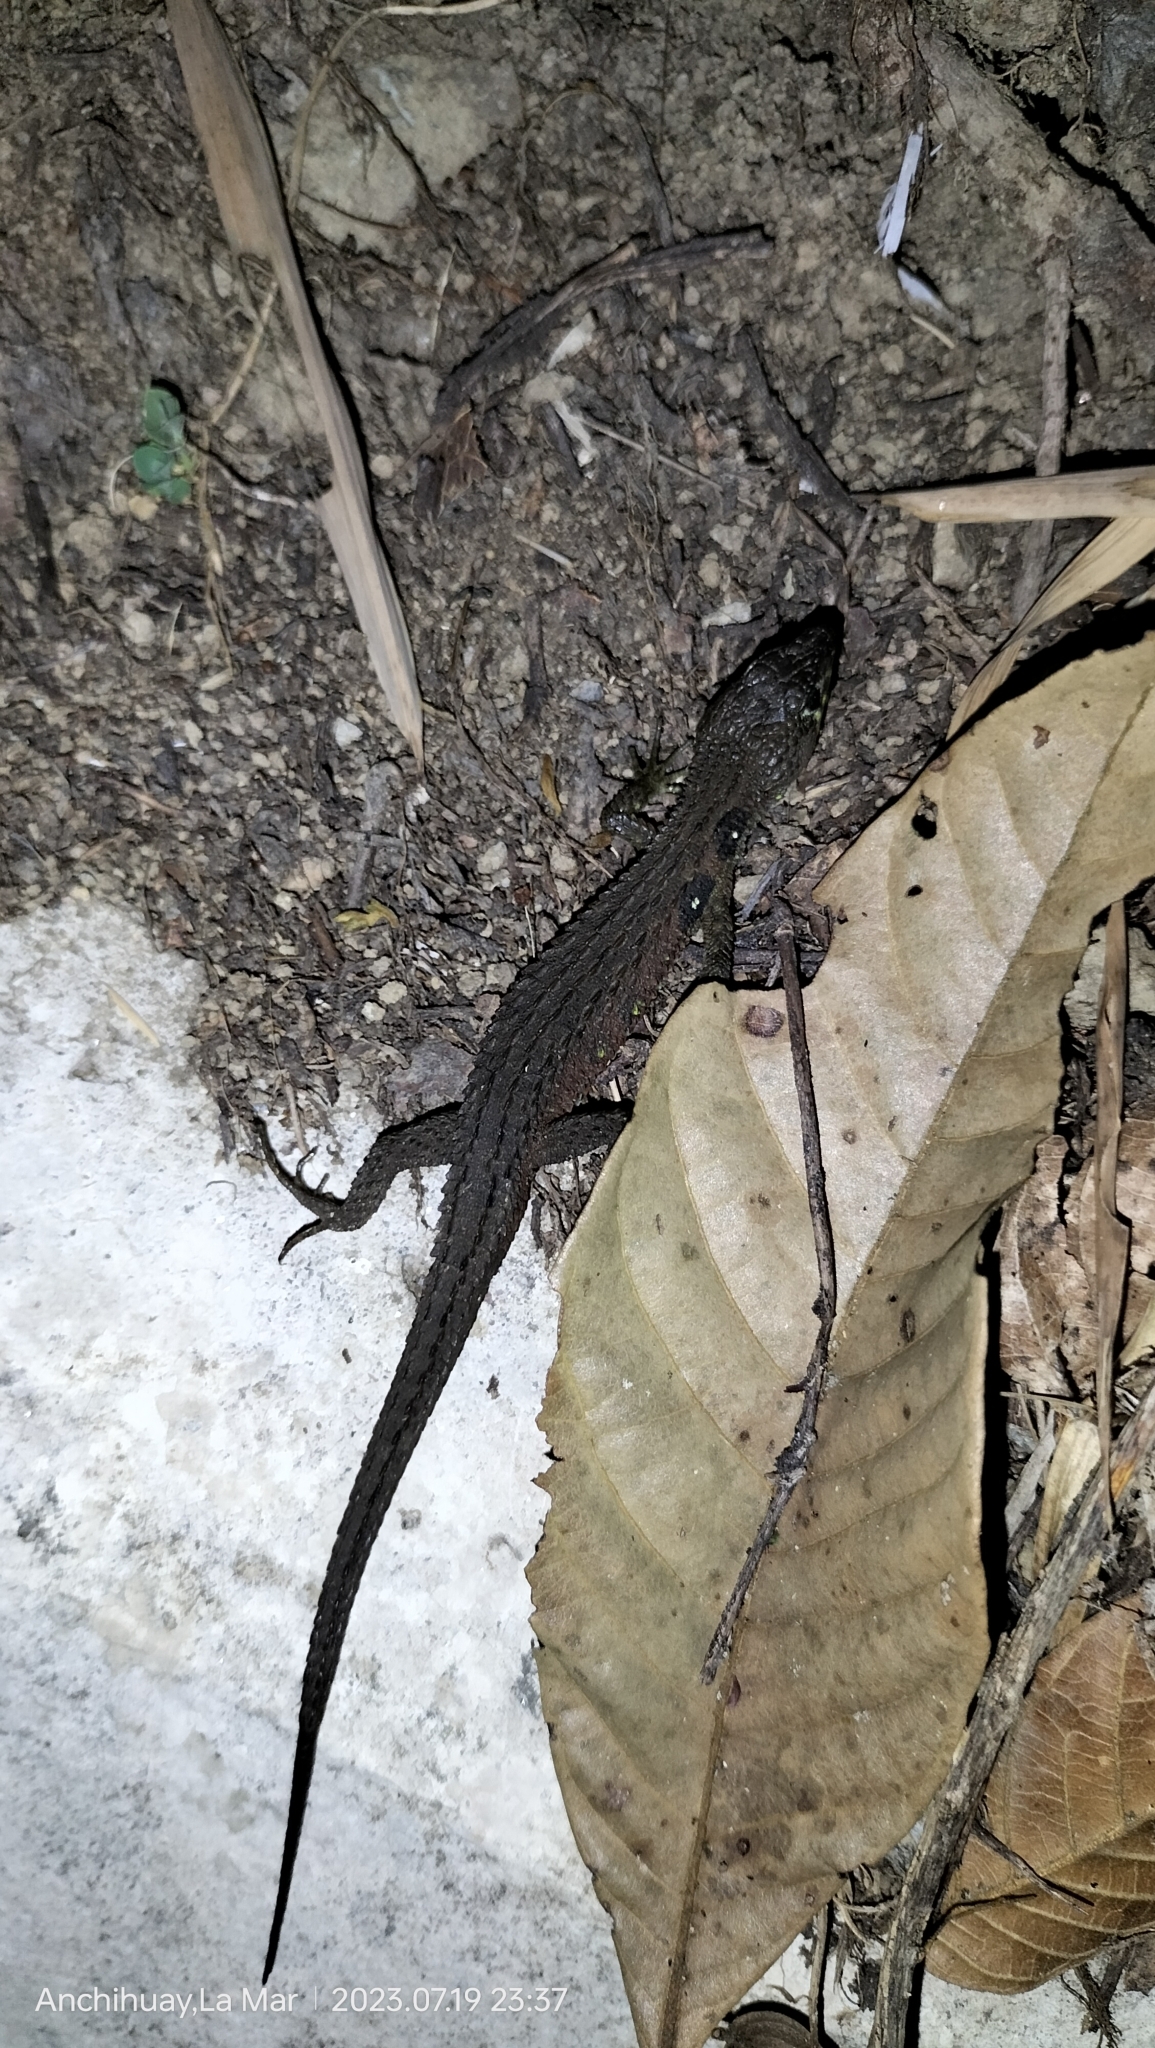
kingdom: Animalia
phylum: Chordata
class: Squamata
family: Gymnophthalmidae
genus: Potamites
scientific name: Potamites montanicola
